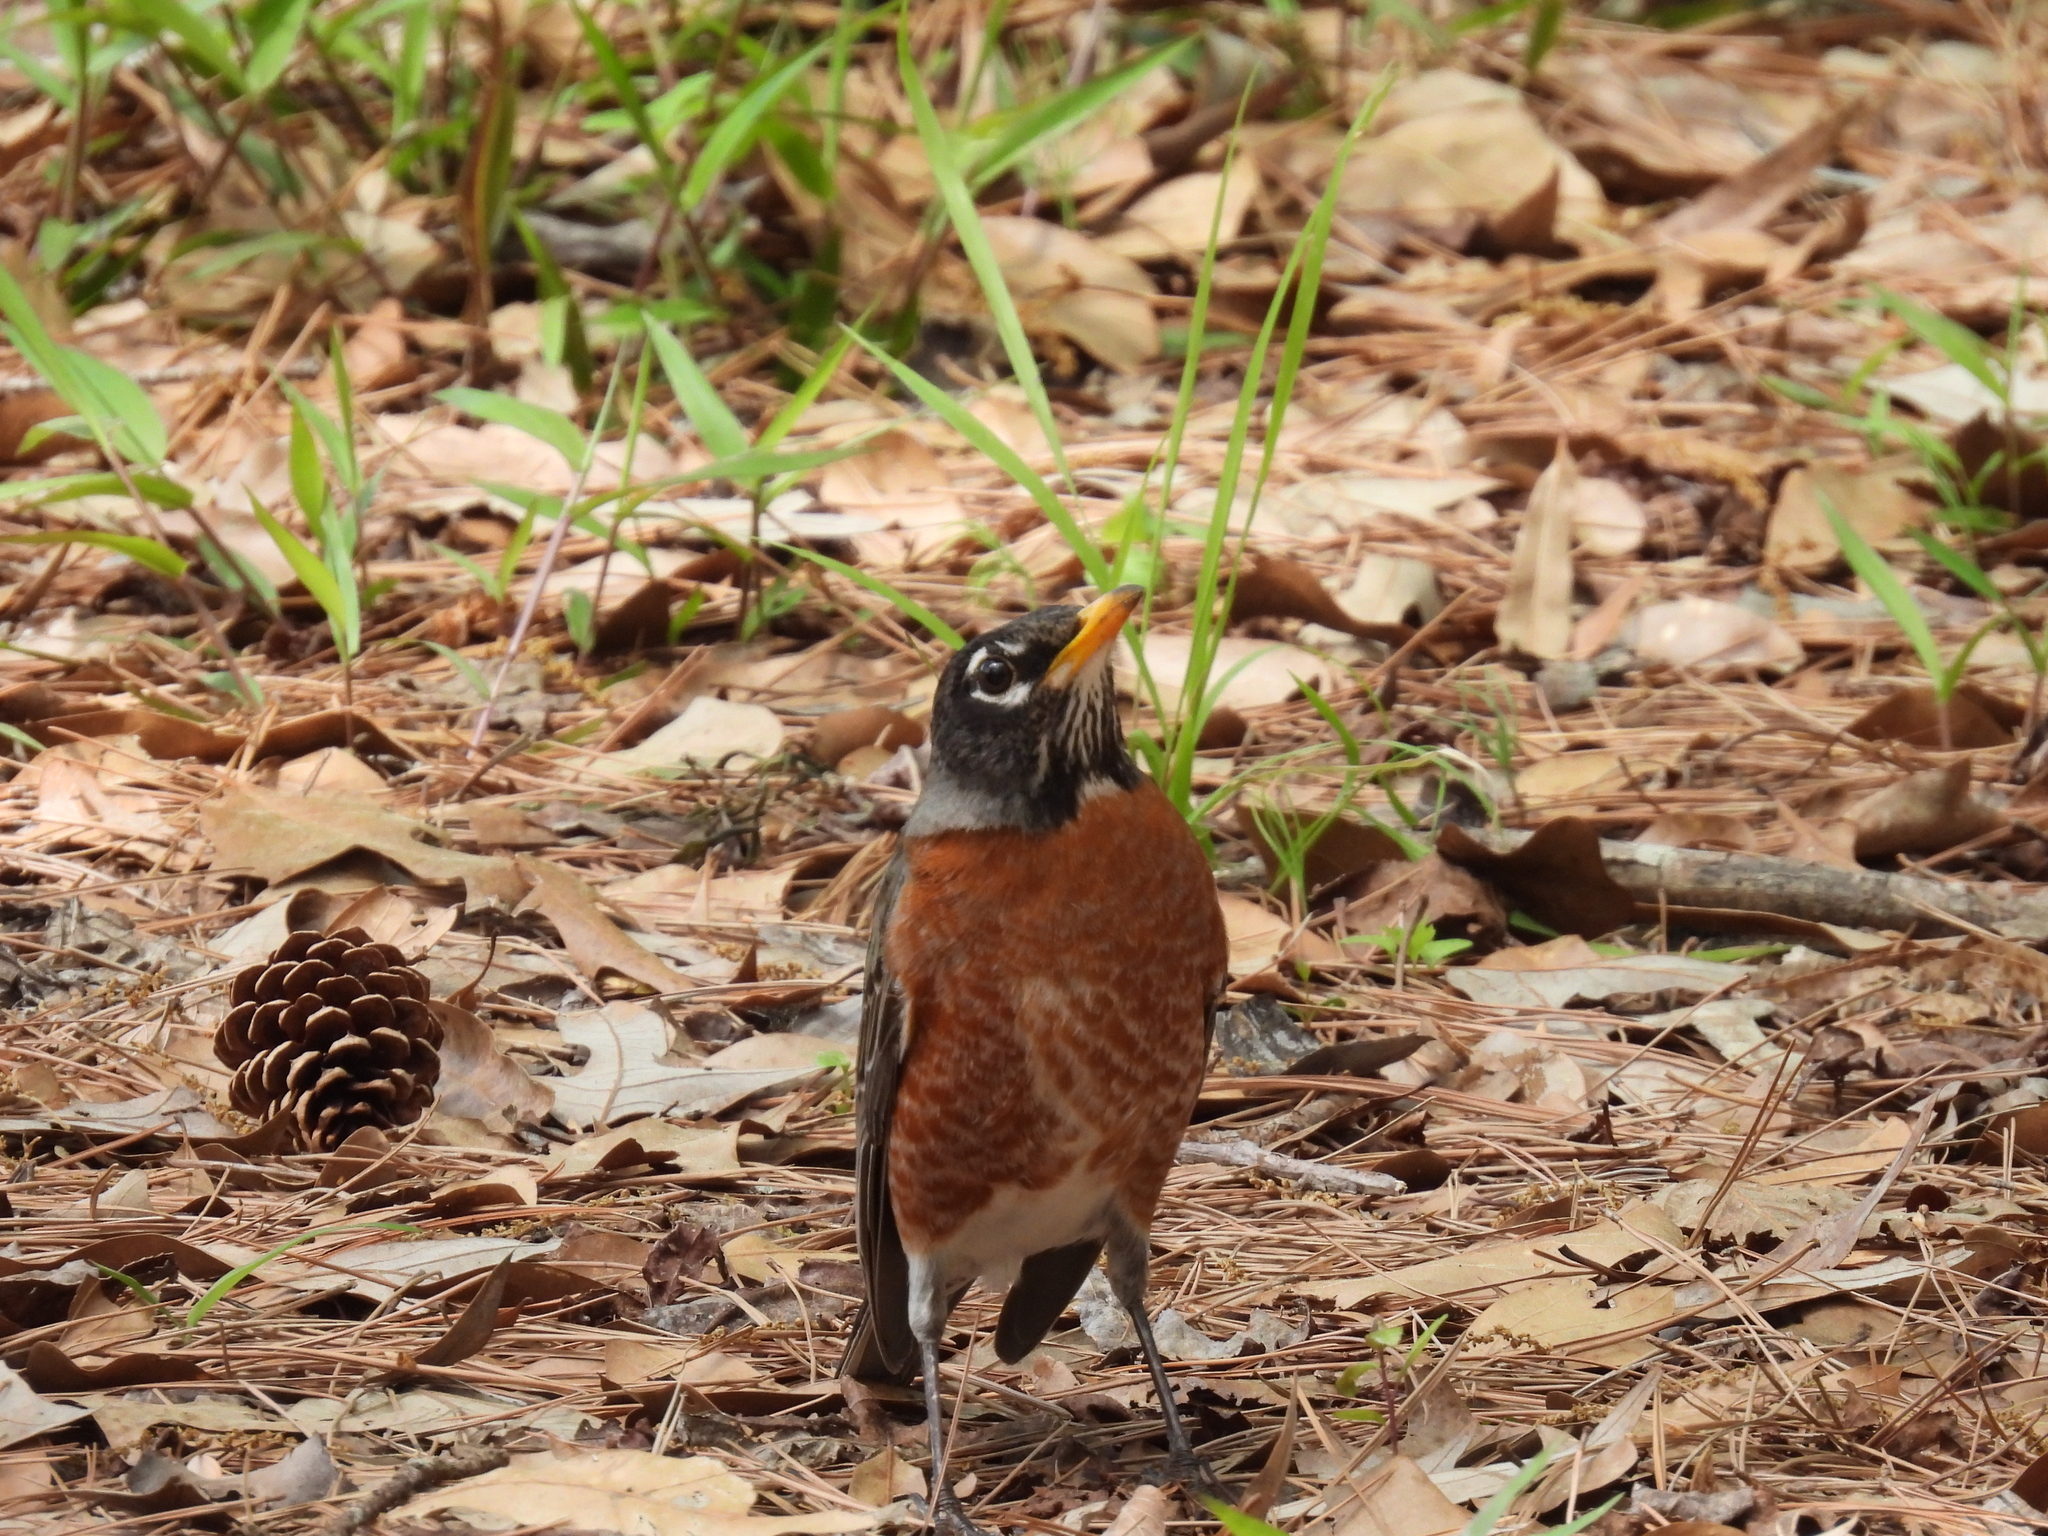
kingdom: Animalia
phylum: Chordata
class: Aves
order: Passeriformes
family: Turdidae
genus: Turdus
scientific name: Turdus migratorius
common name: American robin
